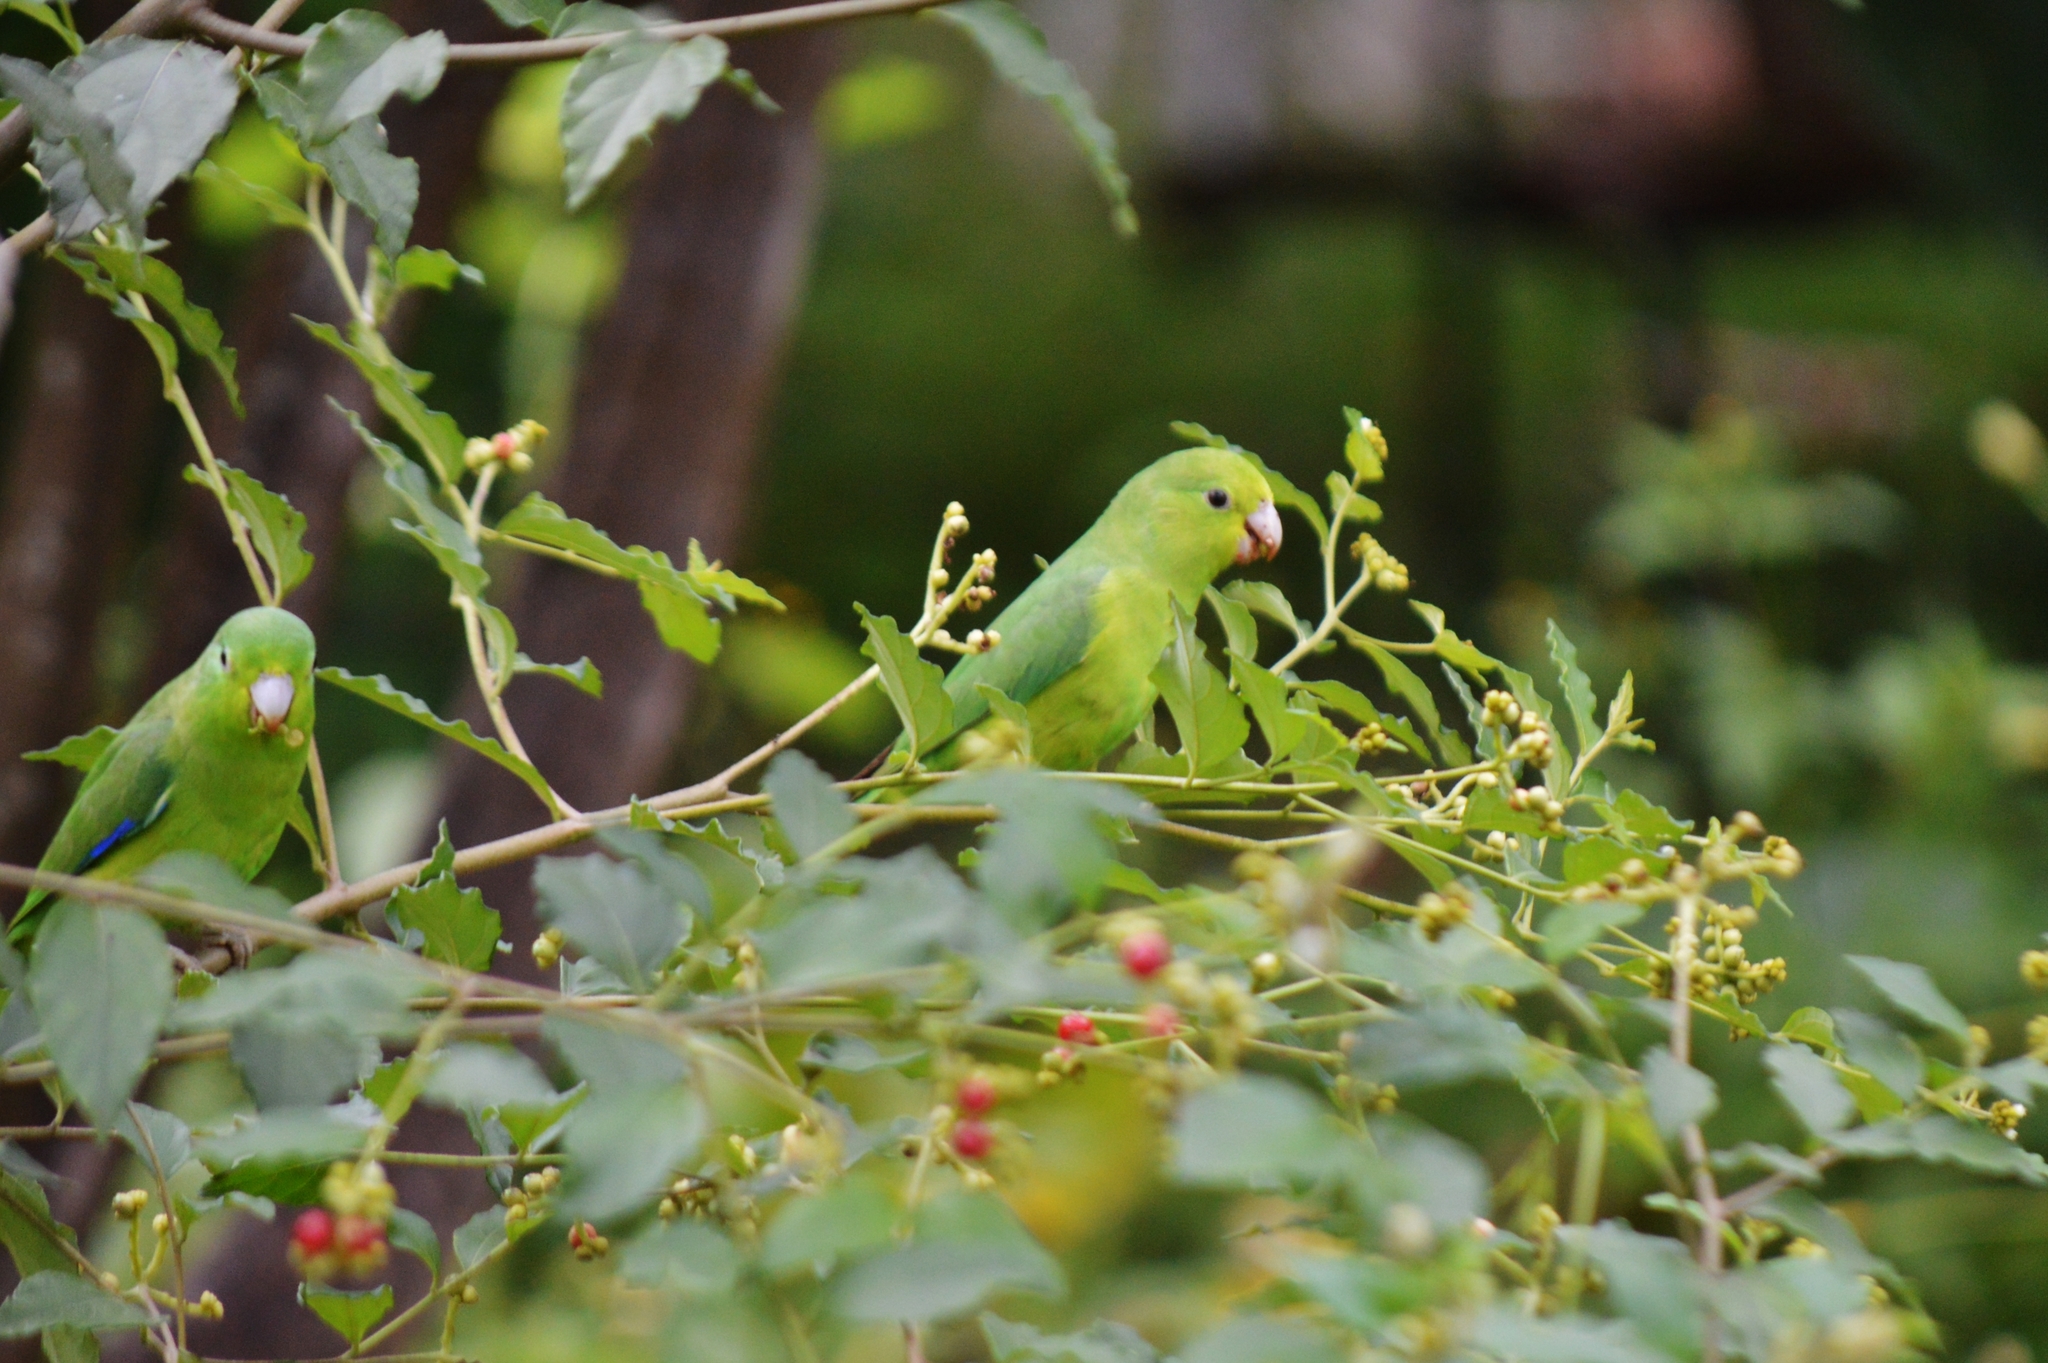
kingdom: Animalia
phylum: Chordata
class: Aves
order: Psittaciformes
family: Psittacidae
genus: Forpus
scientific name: Forpus xanthopterygius
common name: Blue-winged parrotlet
